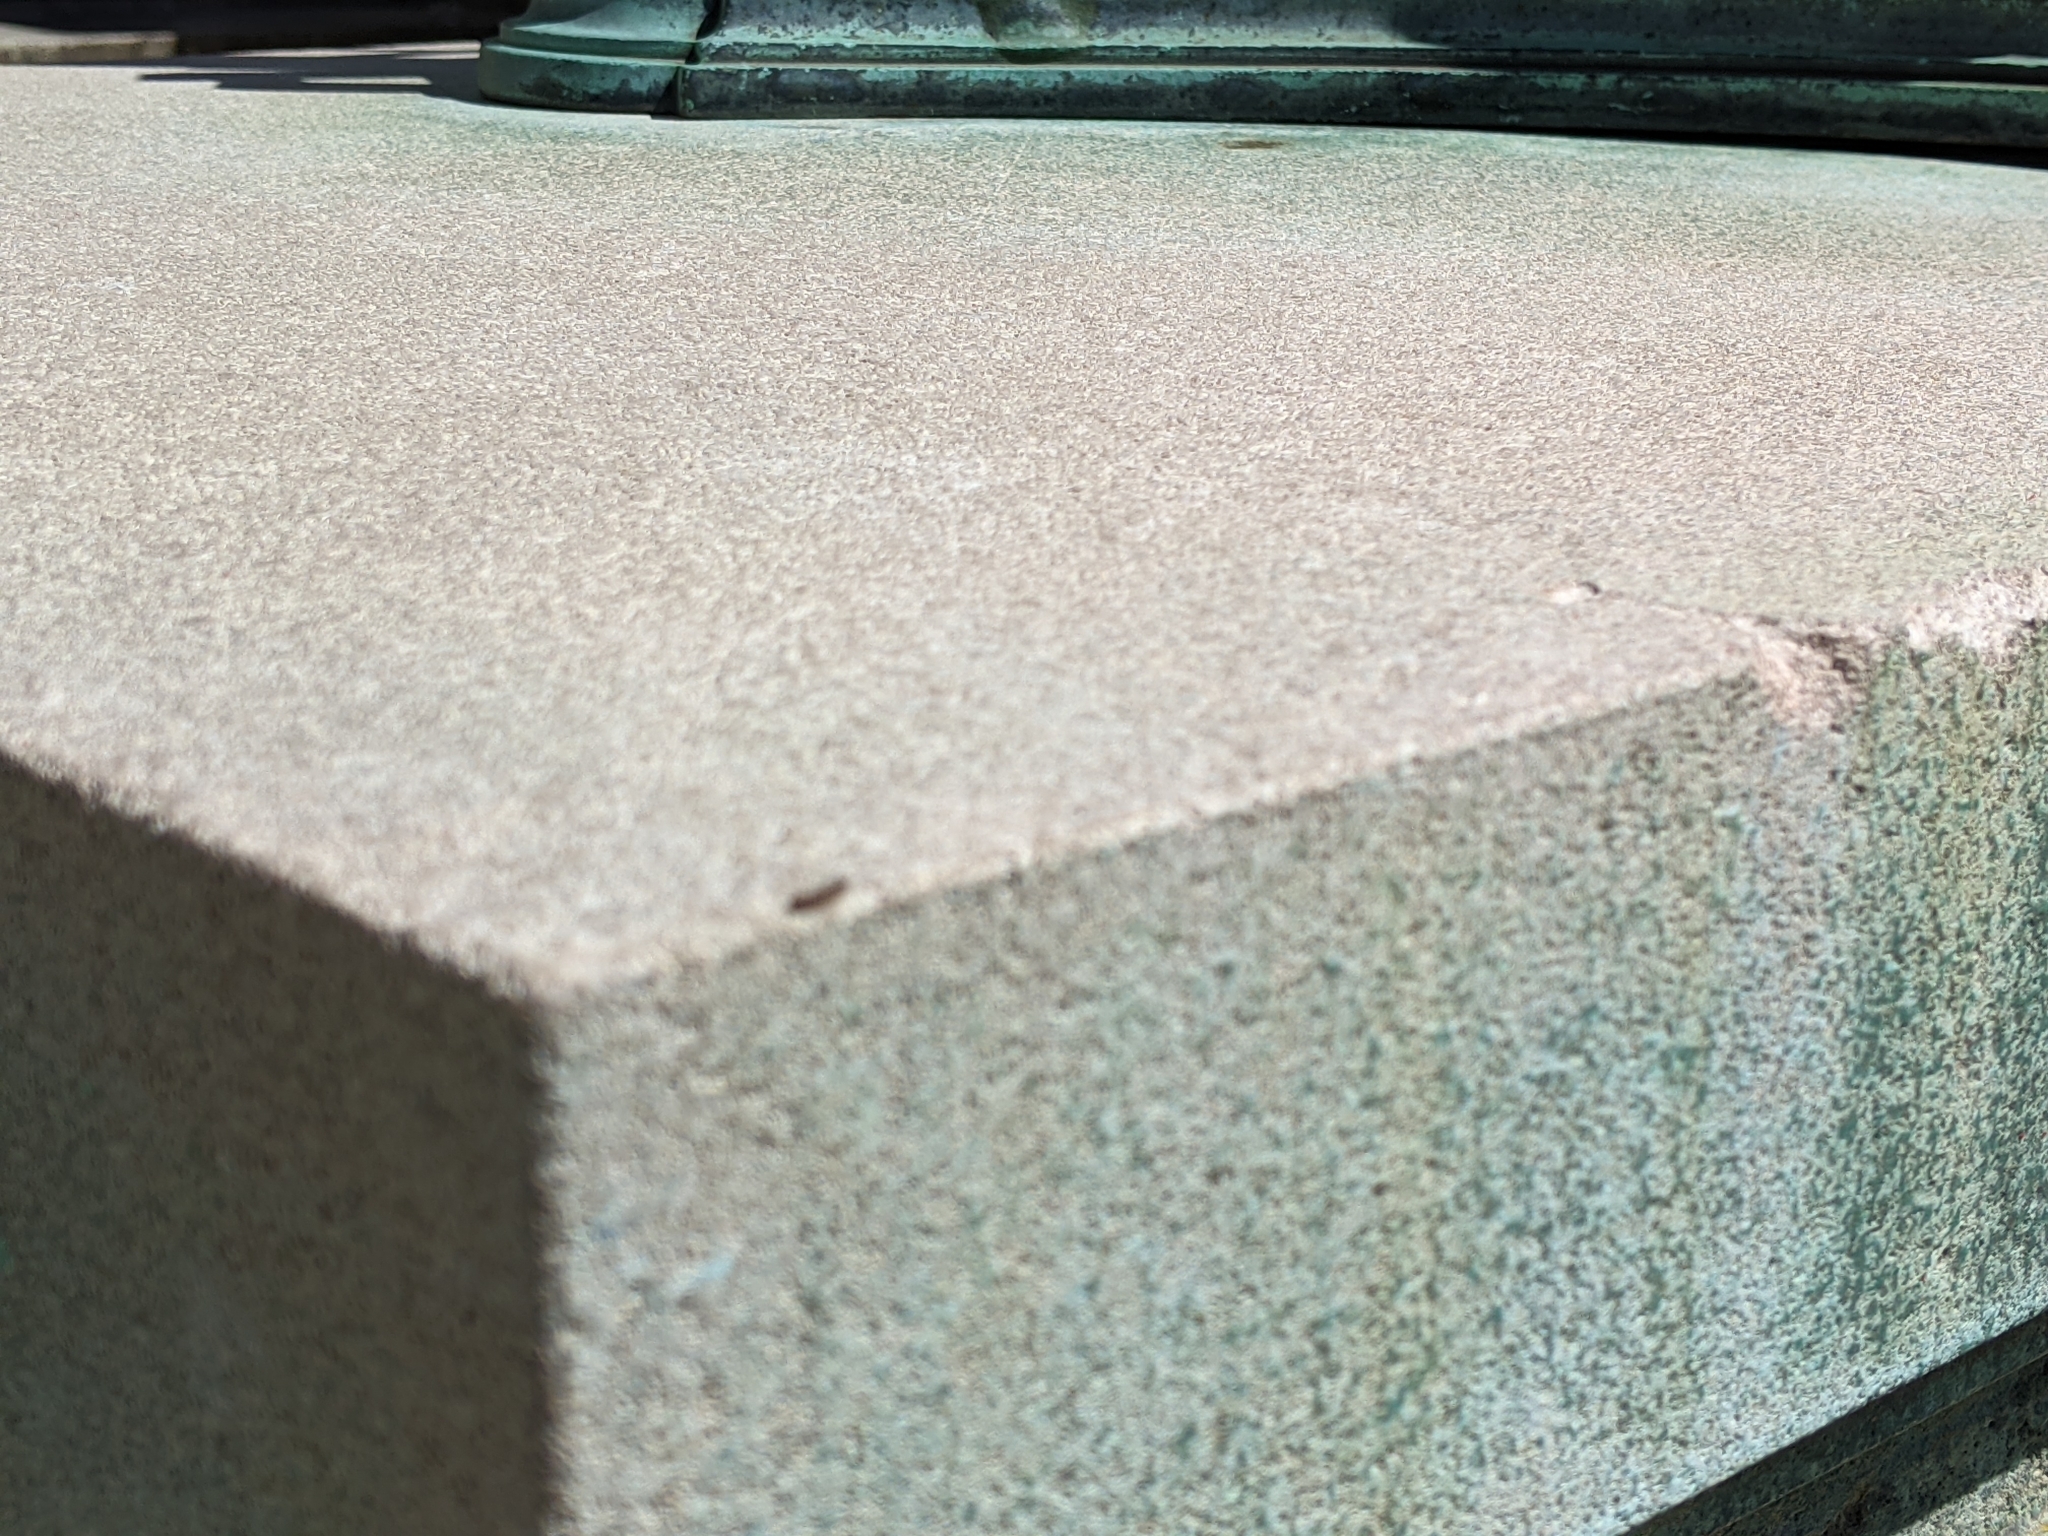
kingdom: Animalia
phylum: Arthropoda
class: Insecta
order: Lepidoptera
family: Erebidae
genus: Lymantria
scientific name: Lymantria dispar
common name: Gypsy moth
